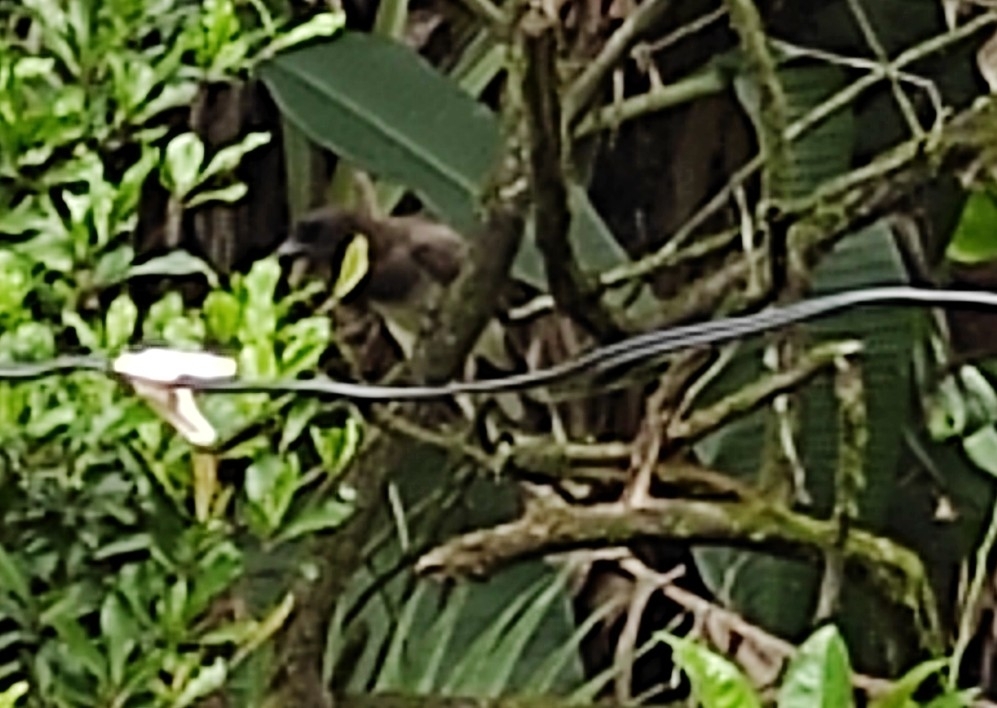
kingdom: Animalia
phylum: Chordata
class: Aves
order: Passeriformes
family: Corvidae
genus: Psilorhinus
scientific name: Psilorhinus morio
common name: Brown jay
